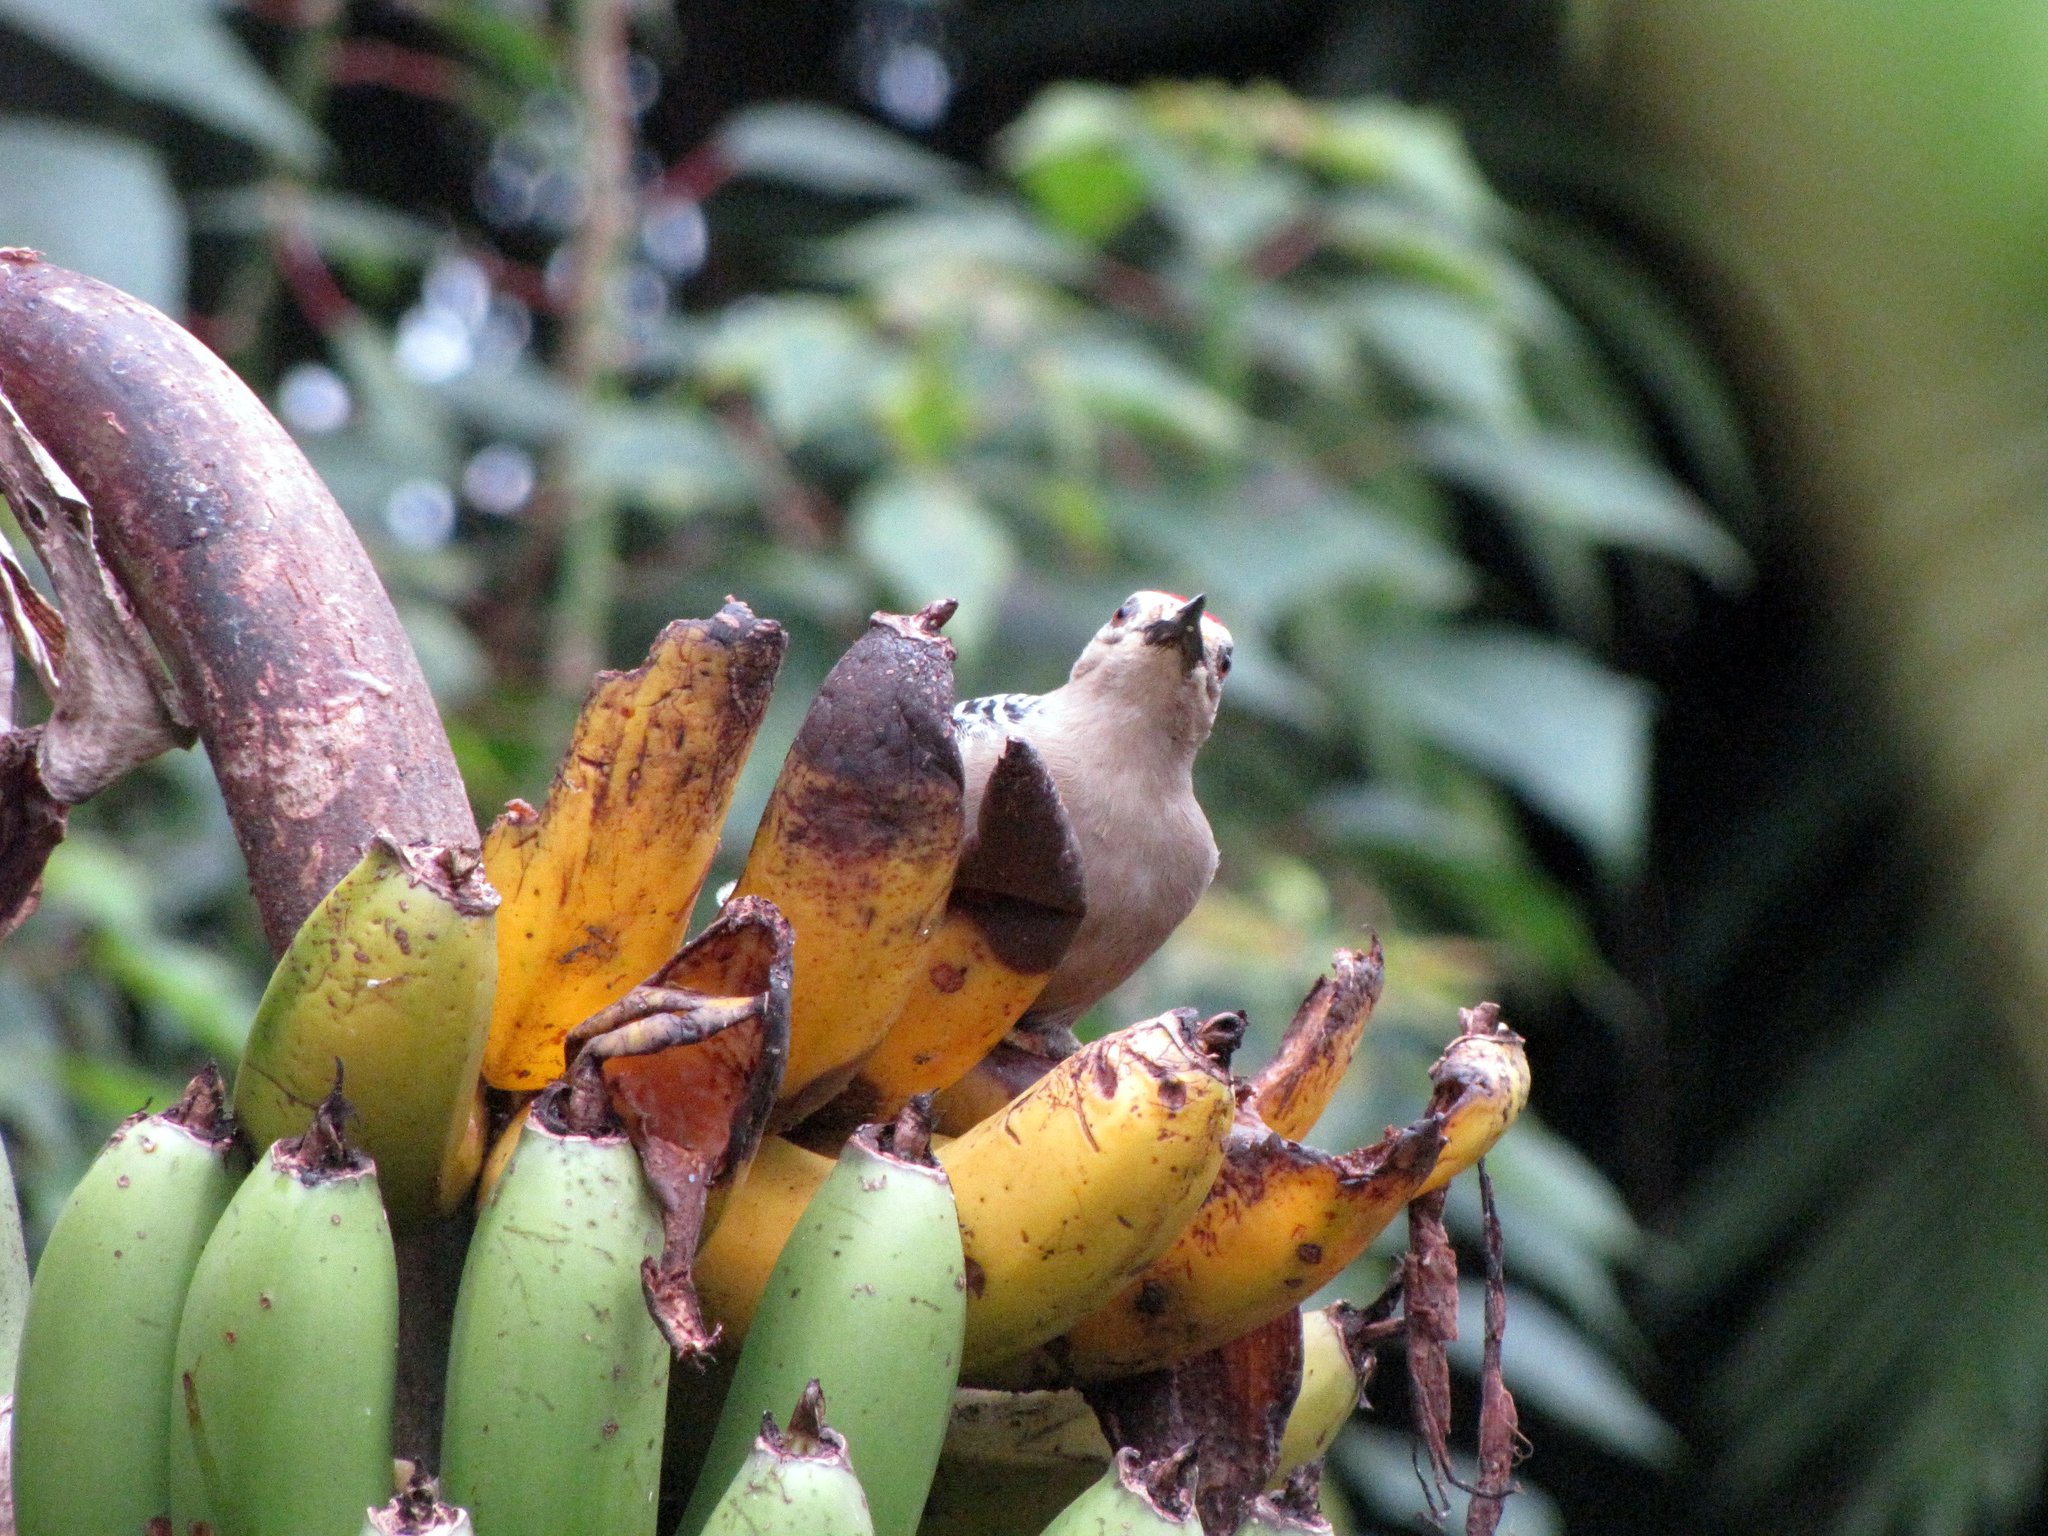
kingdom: Animalia
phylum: Chordata
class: Aves
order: Piciformes
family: Picidae
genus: Melanerpes
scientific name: Melanerpes hoffmannii
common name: Hoffmann's woodpecker
